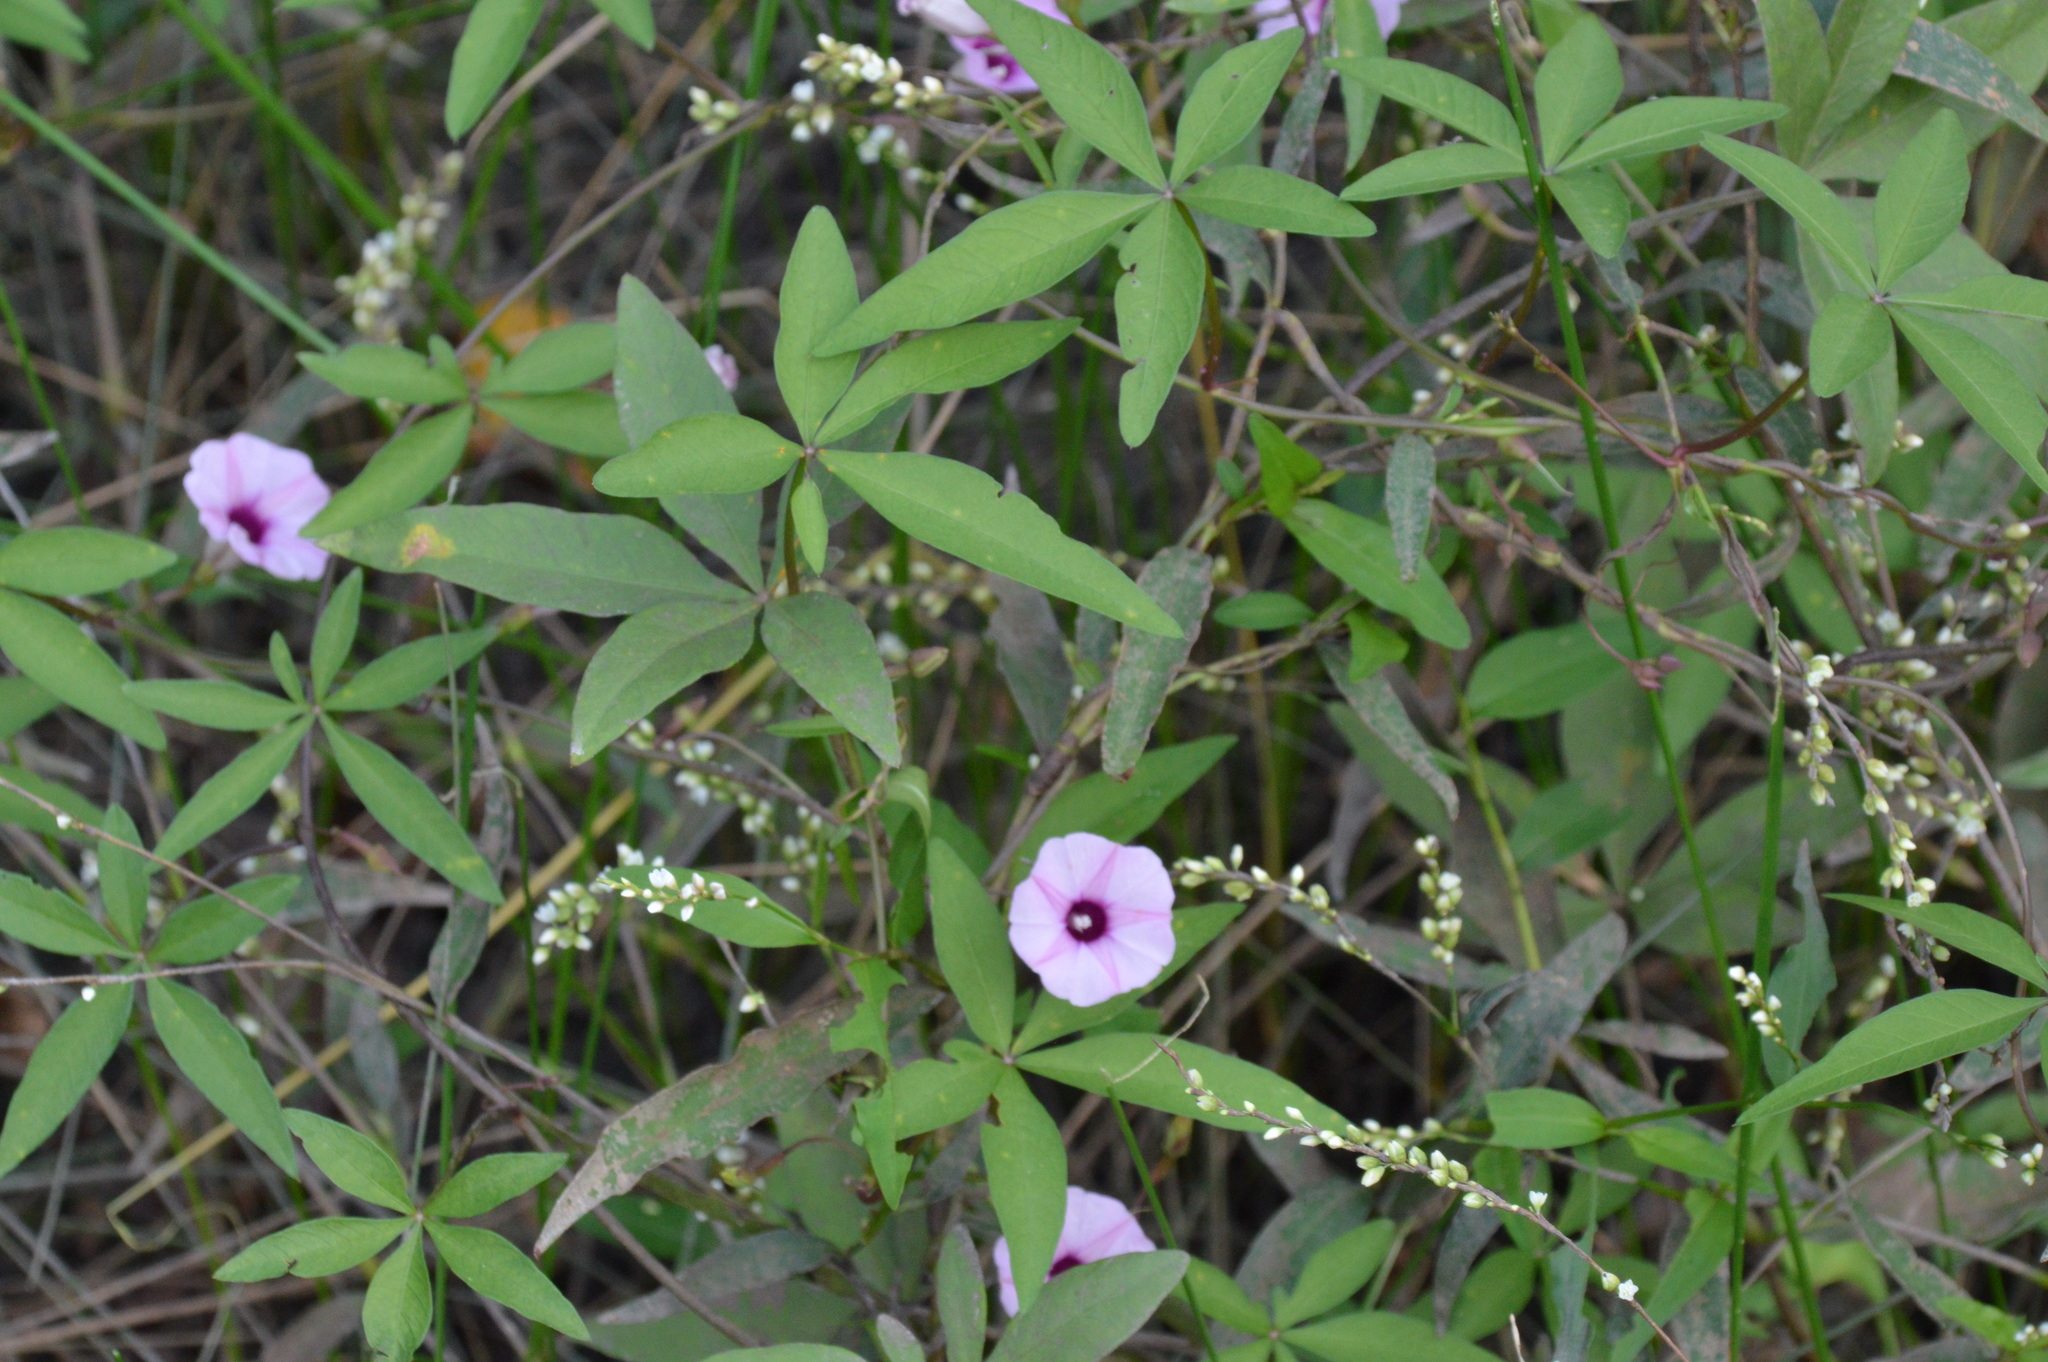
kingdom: Plantae
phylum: Tracheophyta
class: Magnoliopsida
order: Solanales
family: Convolvulaceae
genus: Ipomoea
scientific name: Ipomoea heptaphylla
